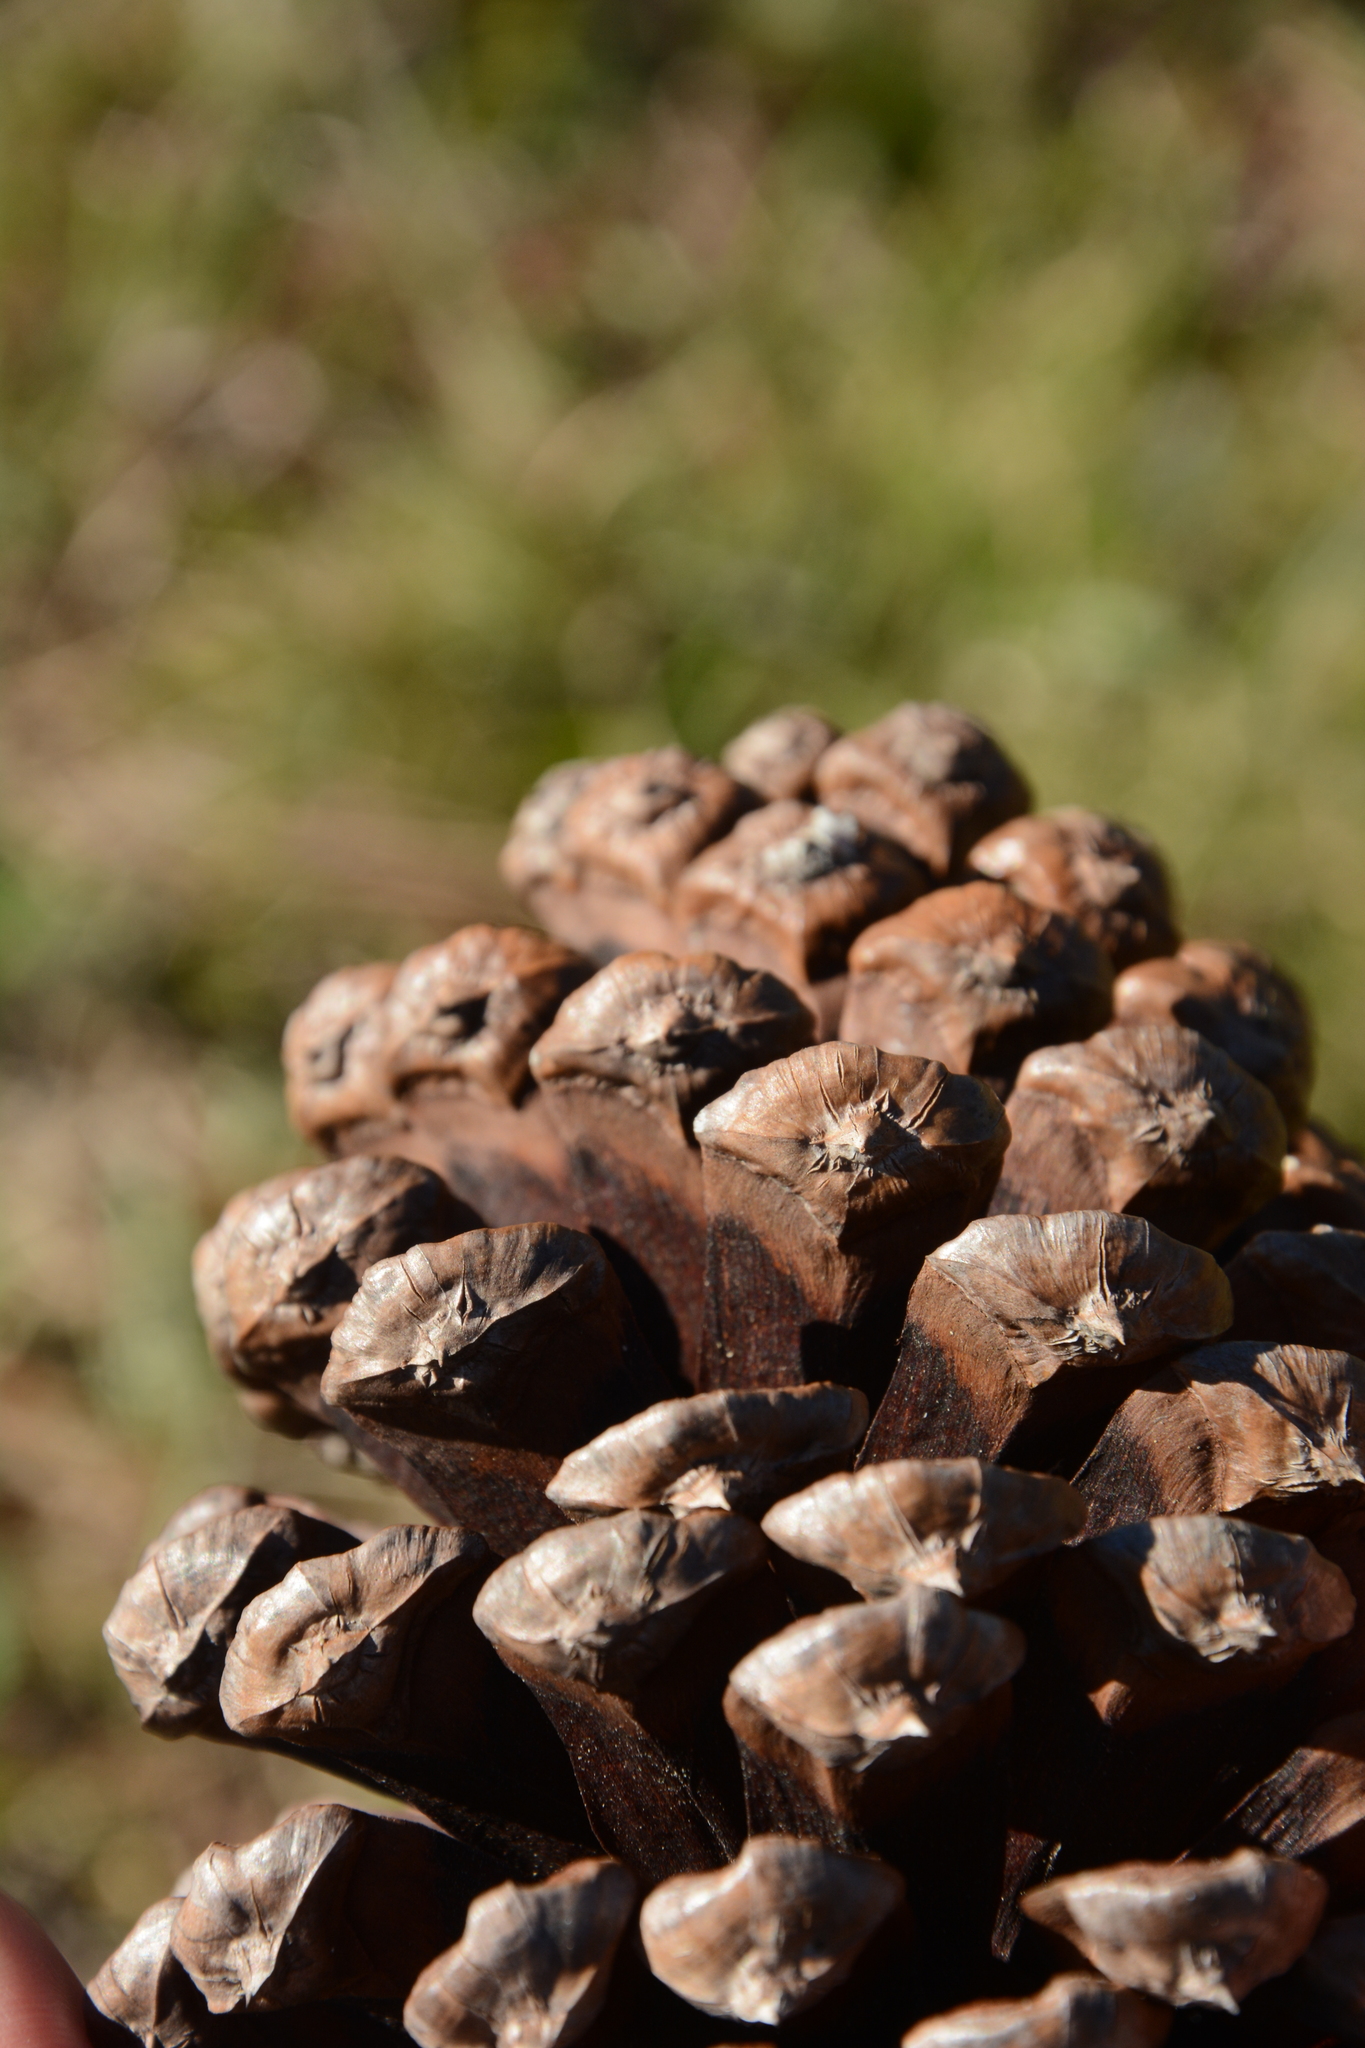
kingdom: Plantae
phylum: Tracheophyta
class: Pinopsida
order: Pinales
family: Pinaceae
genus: Pinus
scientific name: Pinus elliottii
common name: Slash pine
